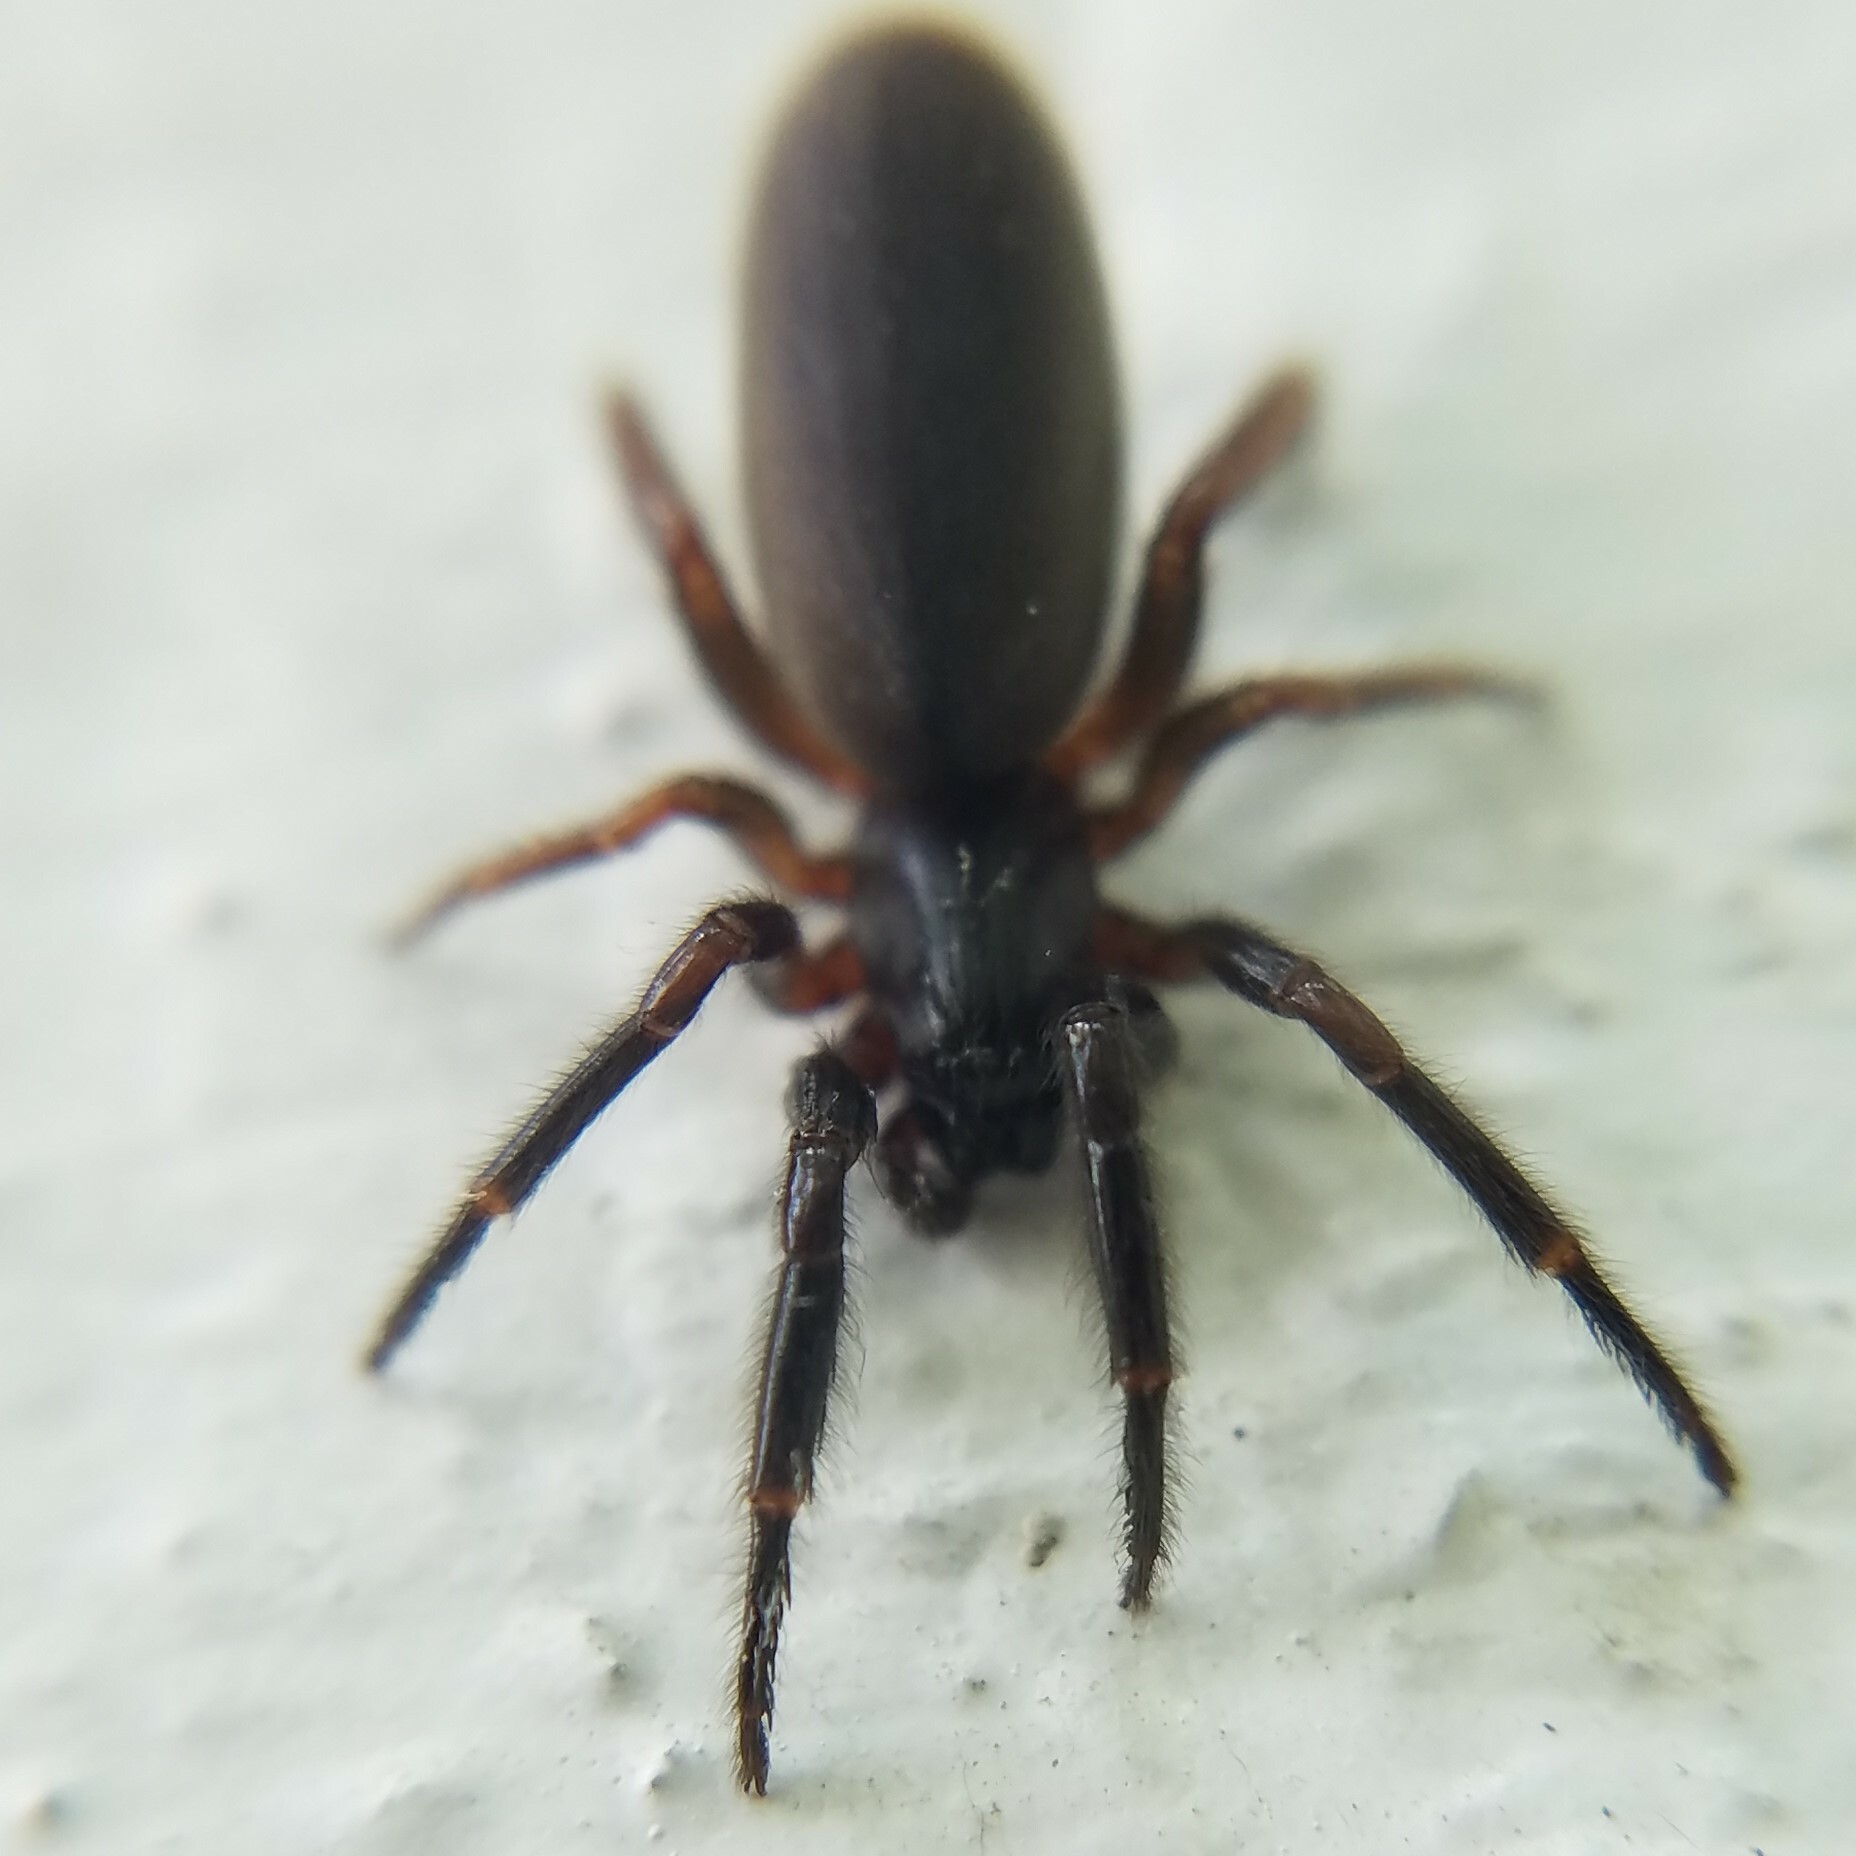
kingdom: Animalia
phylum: Arthropoda
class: Arachnida
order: Araneae
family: Segestriidae
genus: Ariadna
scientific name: Ariadna bicolor
